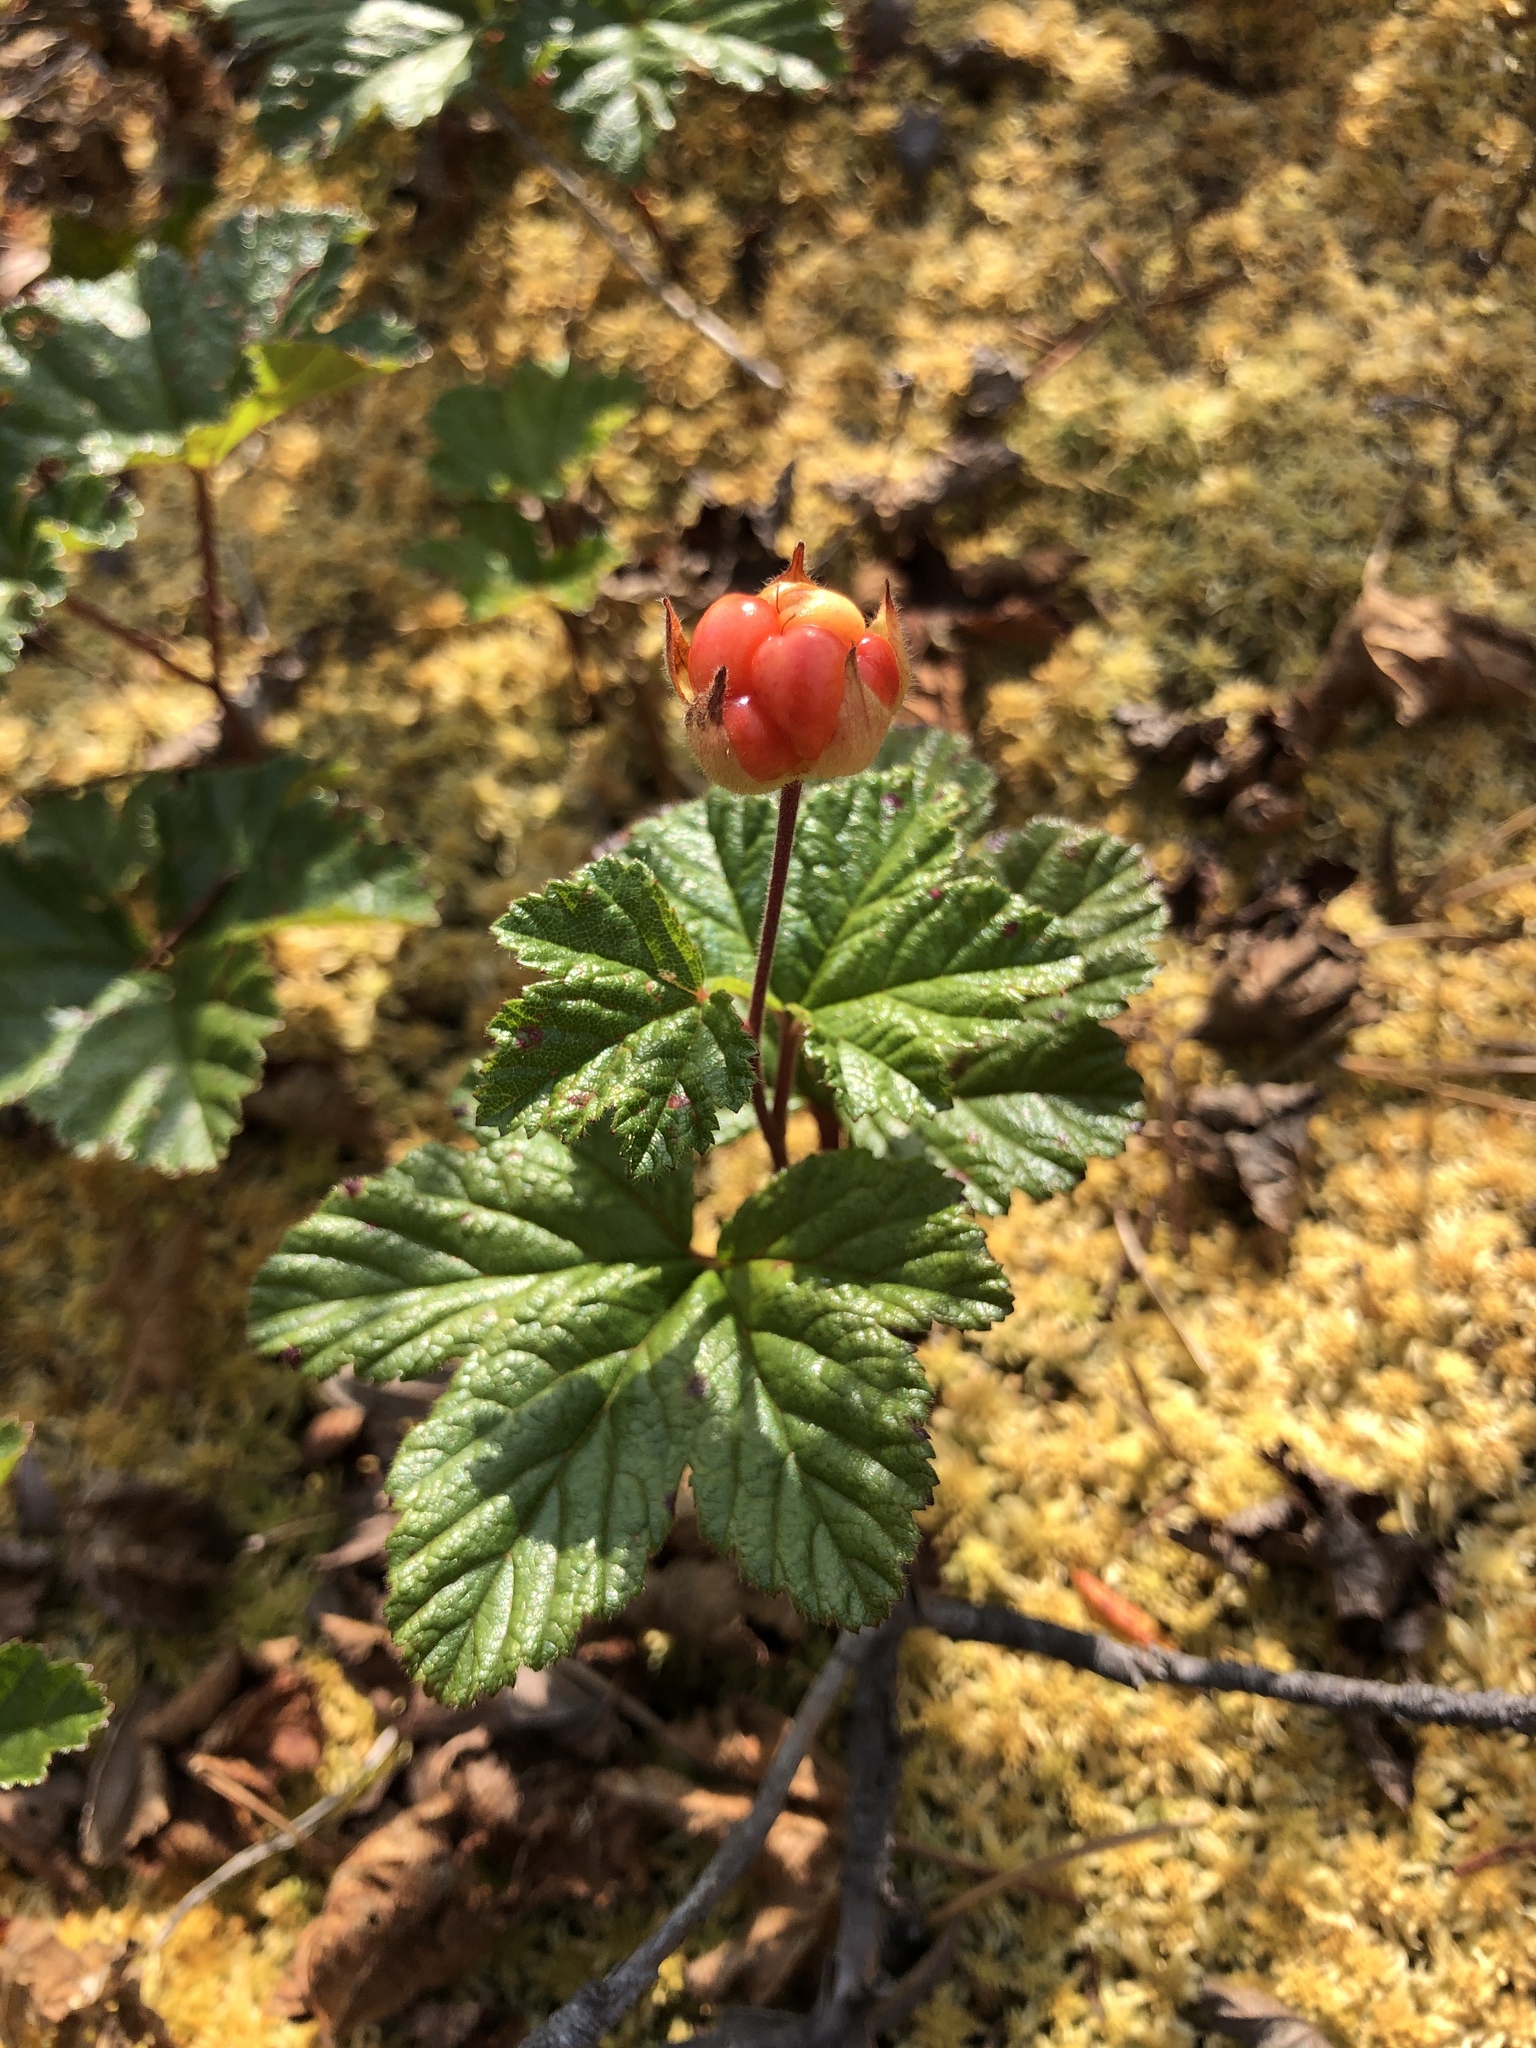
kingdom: Plantae
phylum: Tracheophyta
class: Magnoliopsida
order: Rosales
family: Rosaceae
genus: Rubus
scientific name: Rubus chamaemorus
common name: Cloudberry
